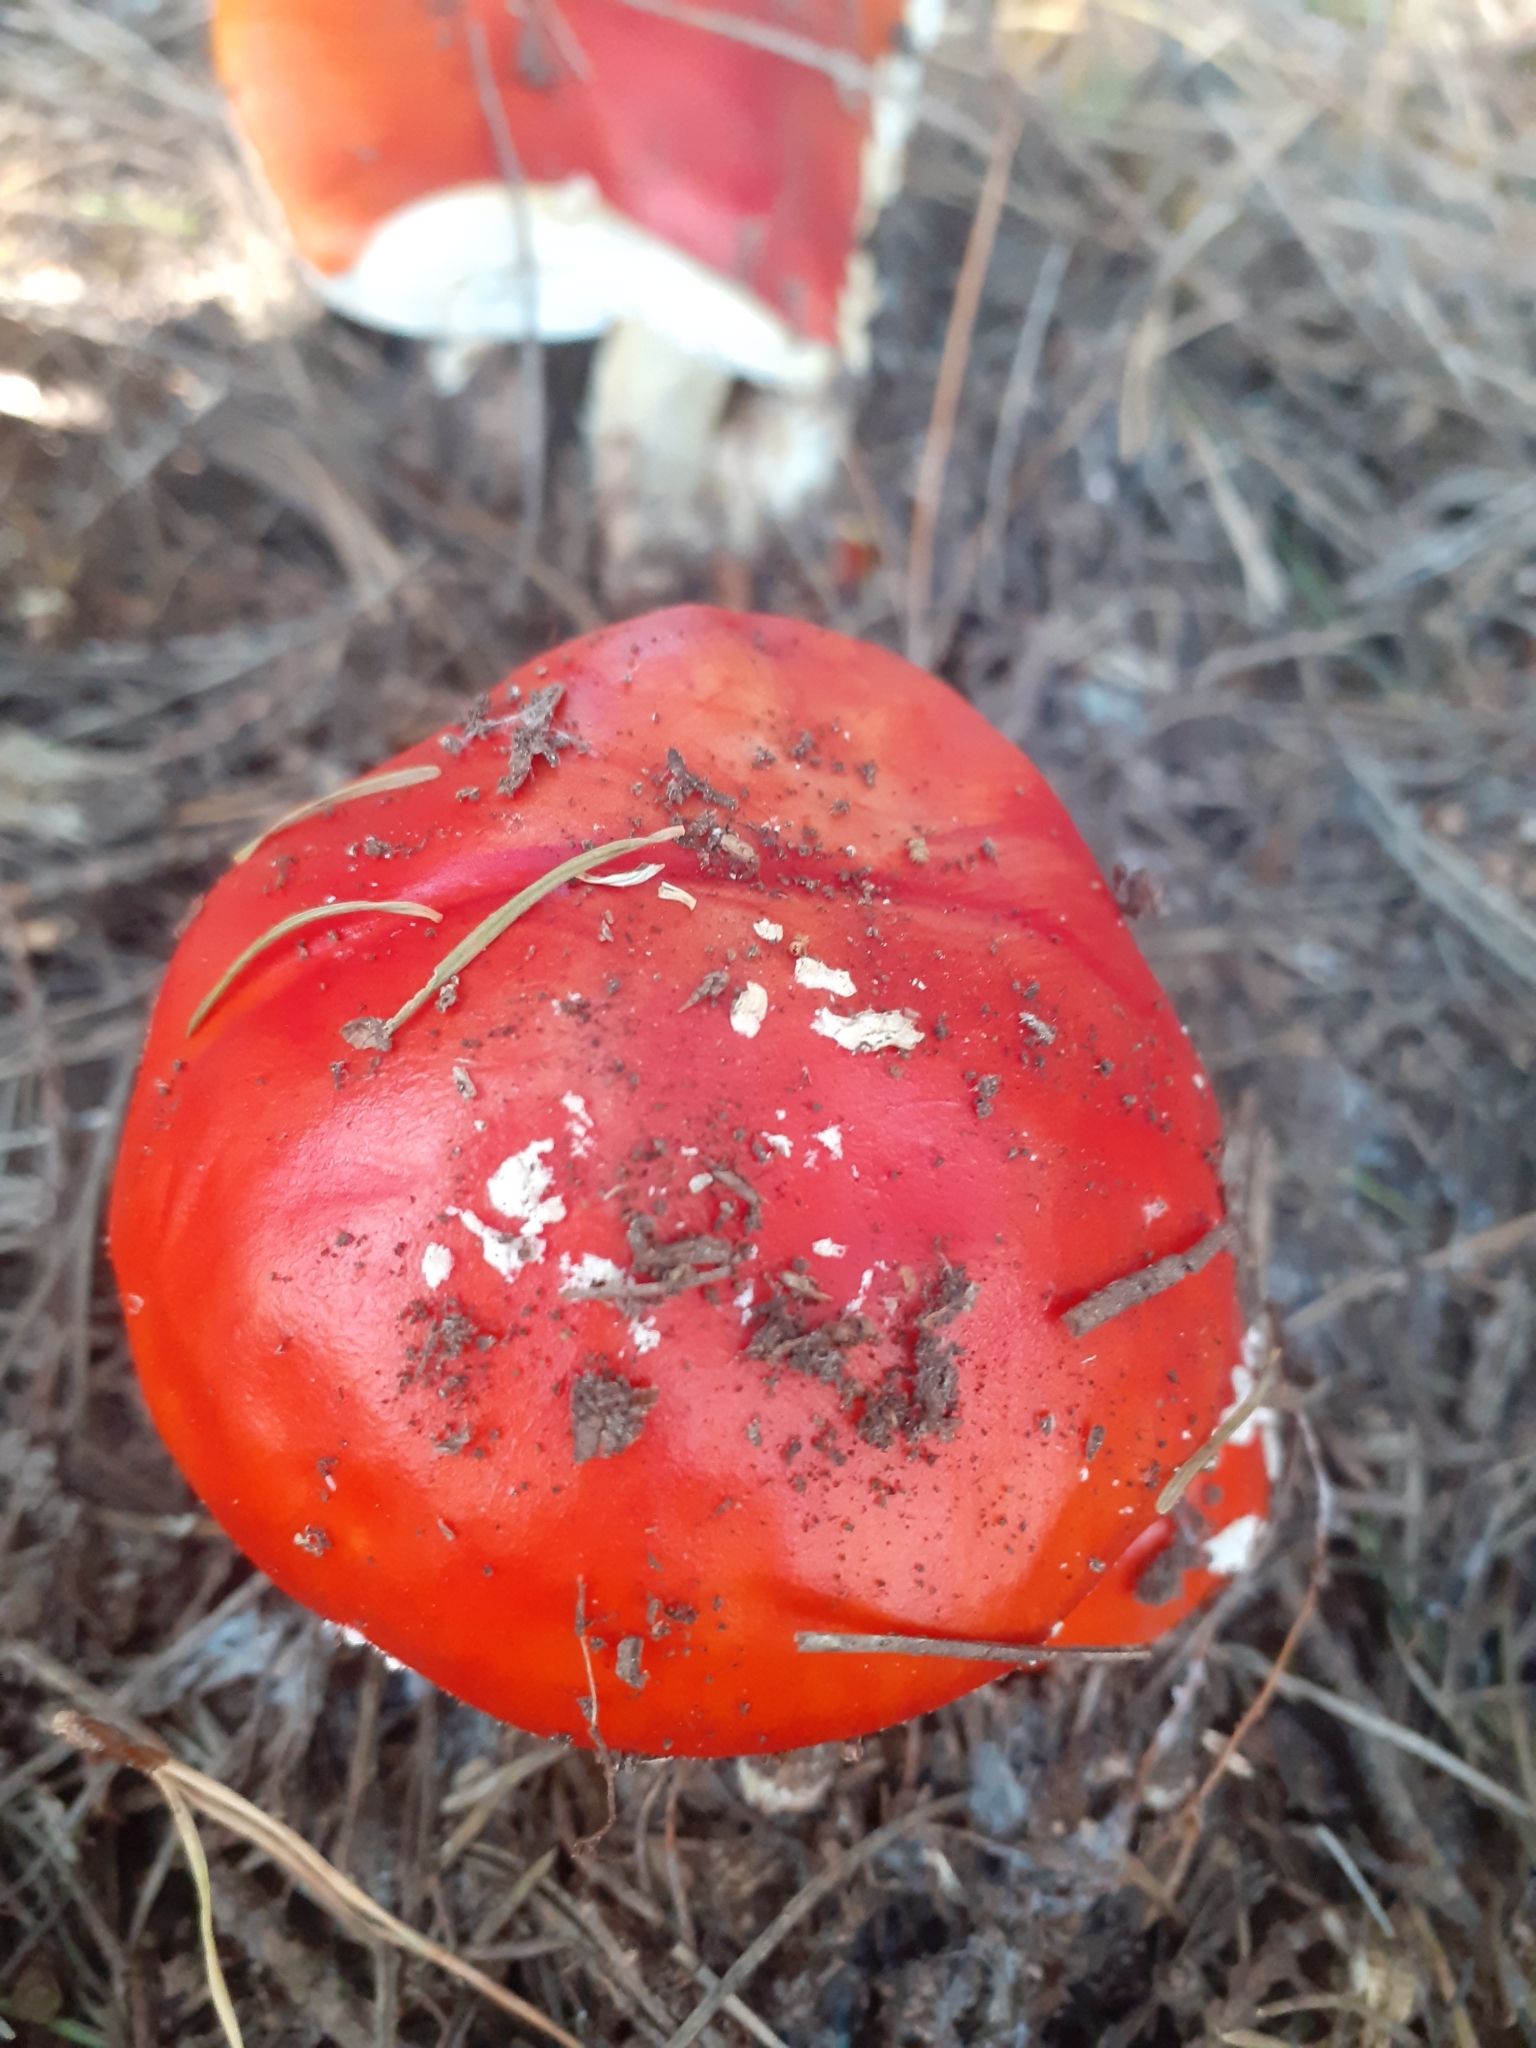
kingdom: Fungi
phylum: Basidiomycota
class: Agaricomycetes
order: Agaricales
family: Amanitaceae
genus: Amanita
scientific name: Amanita muscaria
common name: Fly agaric
